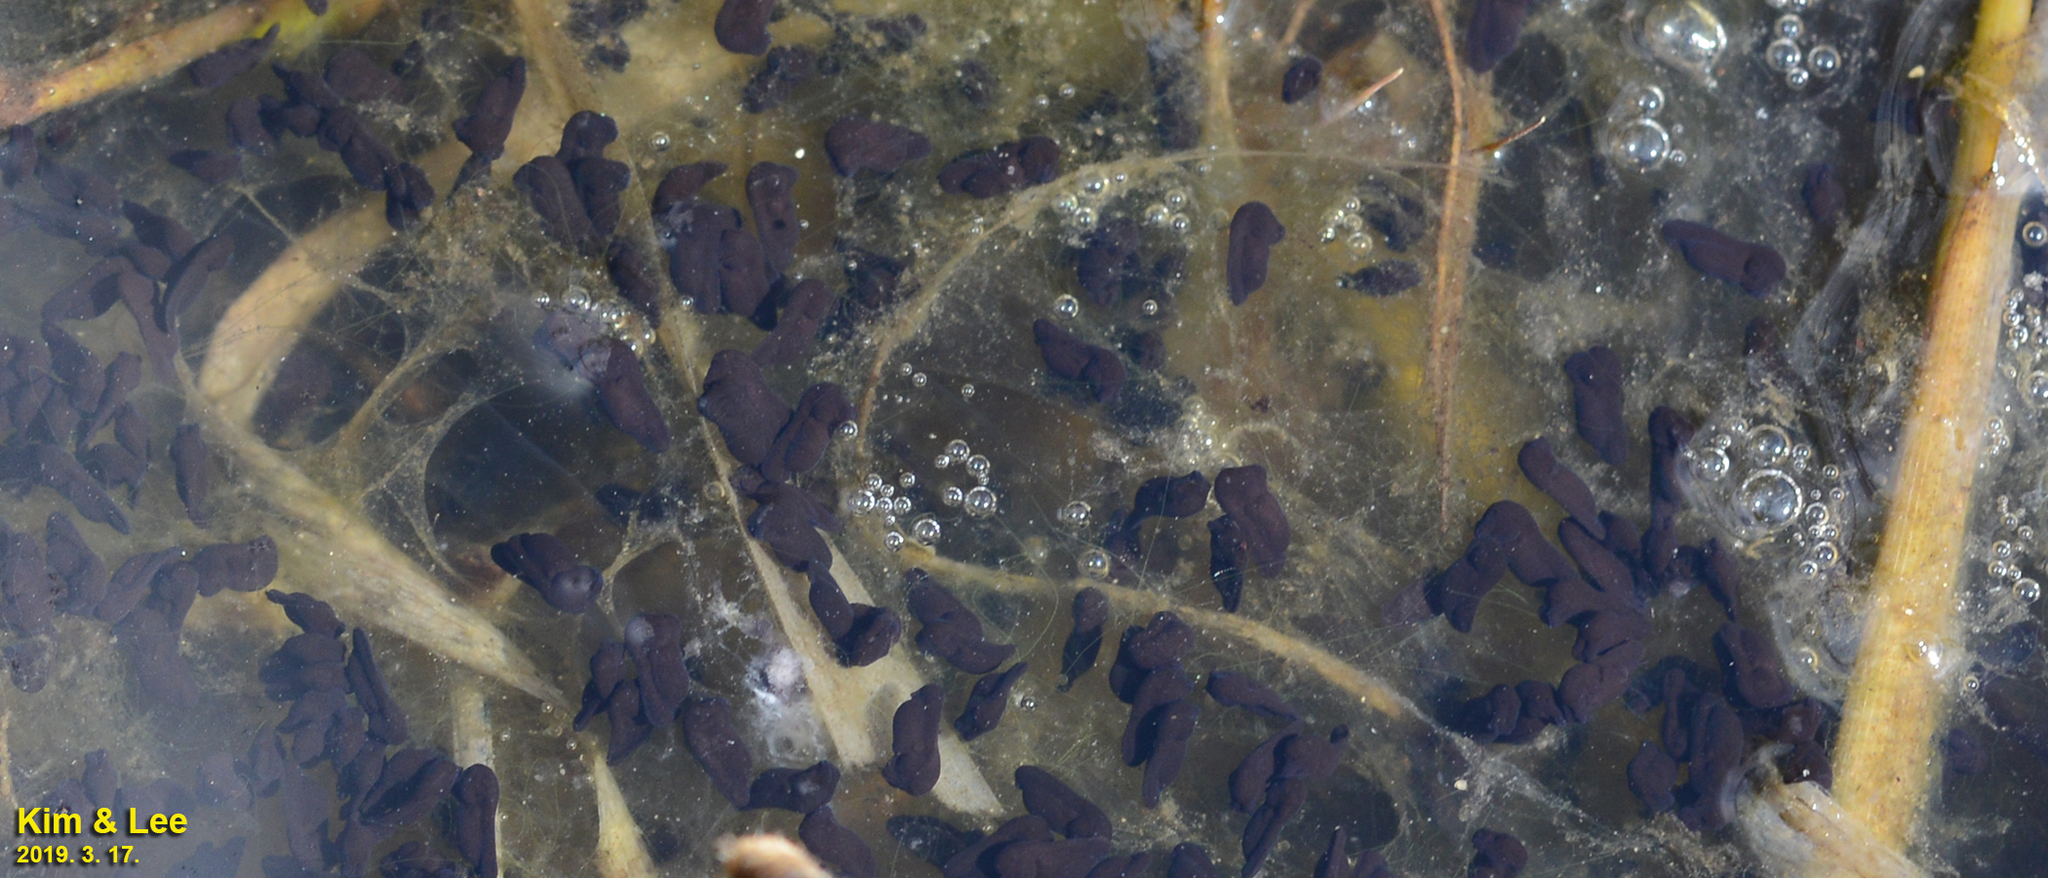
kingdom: Animalia
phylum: Chordata
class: Amphibia
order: Anura
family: Bufonidae
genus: Bufo
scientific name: Bufo gargarizans
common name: Asiatic toad
